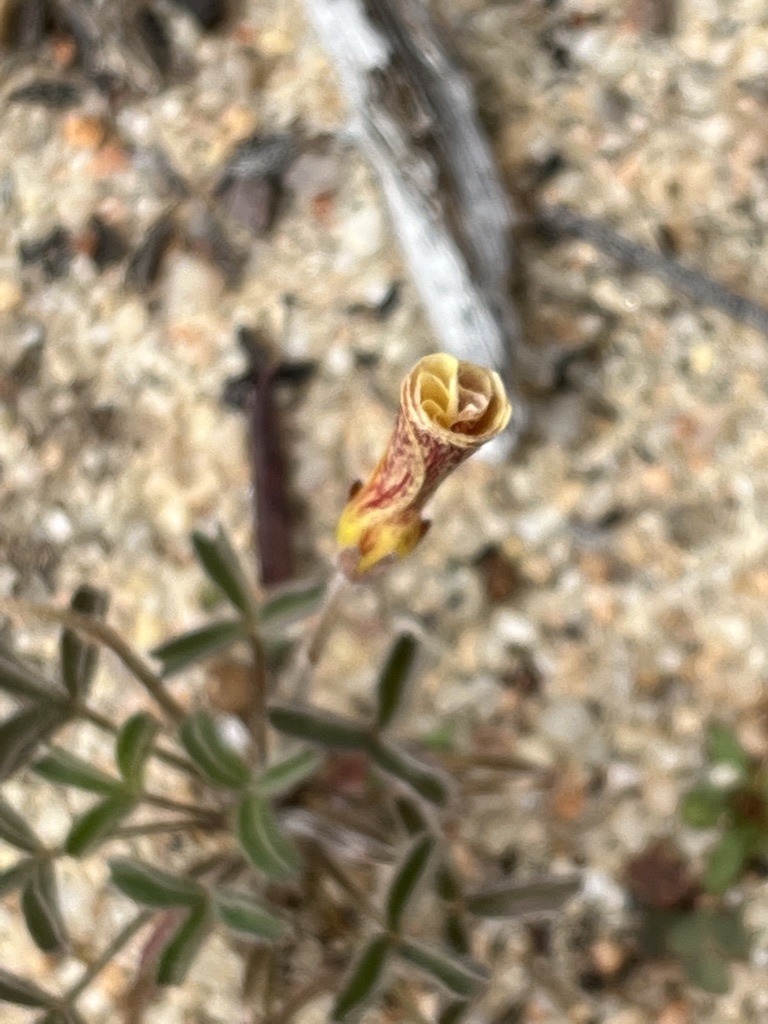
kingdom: Plantae
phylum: Tracheophyta
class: Magnoliopsida
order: Oxalidales
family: Oxalidaceae
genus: Oxalis
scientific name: Oxalis obtusa
